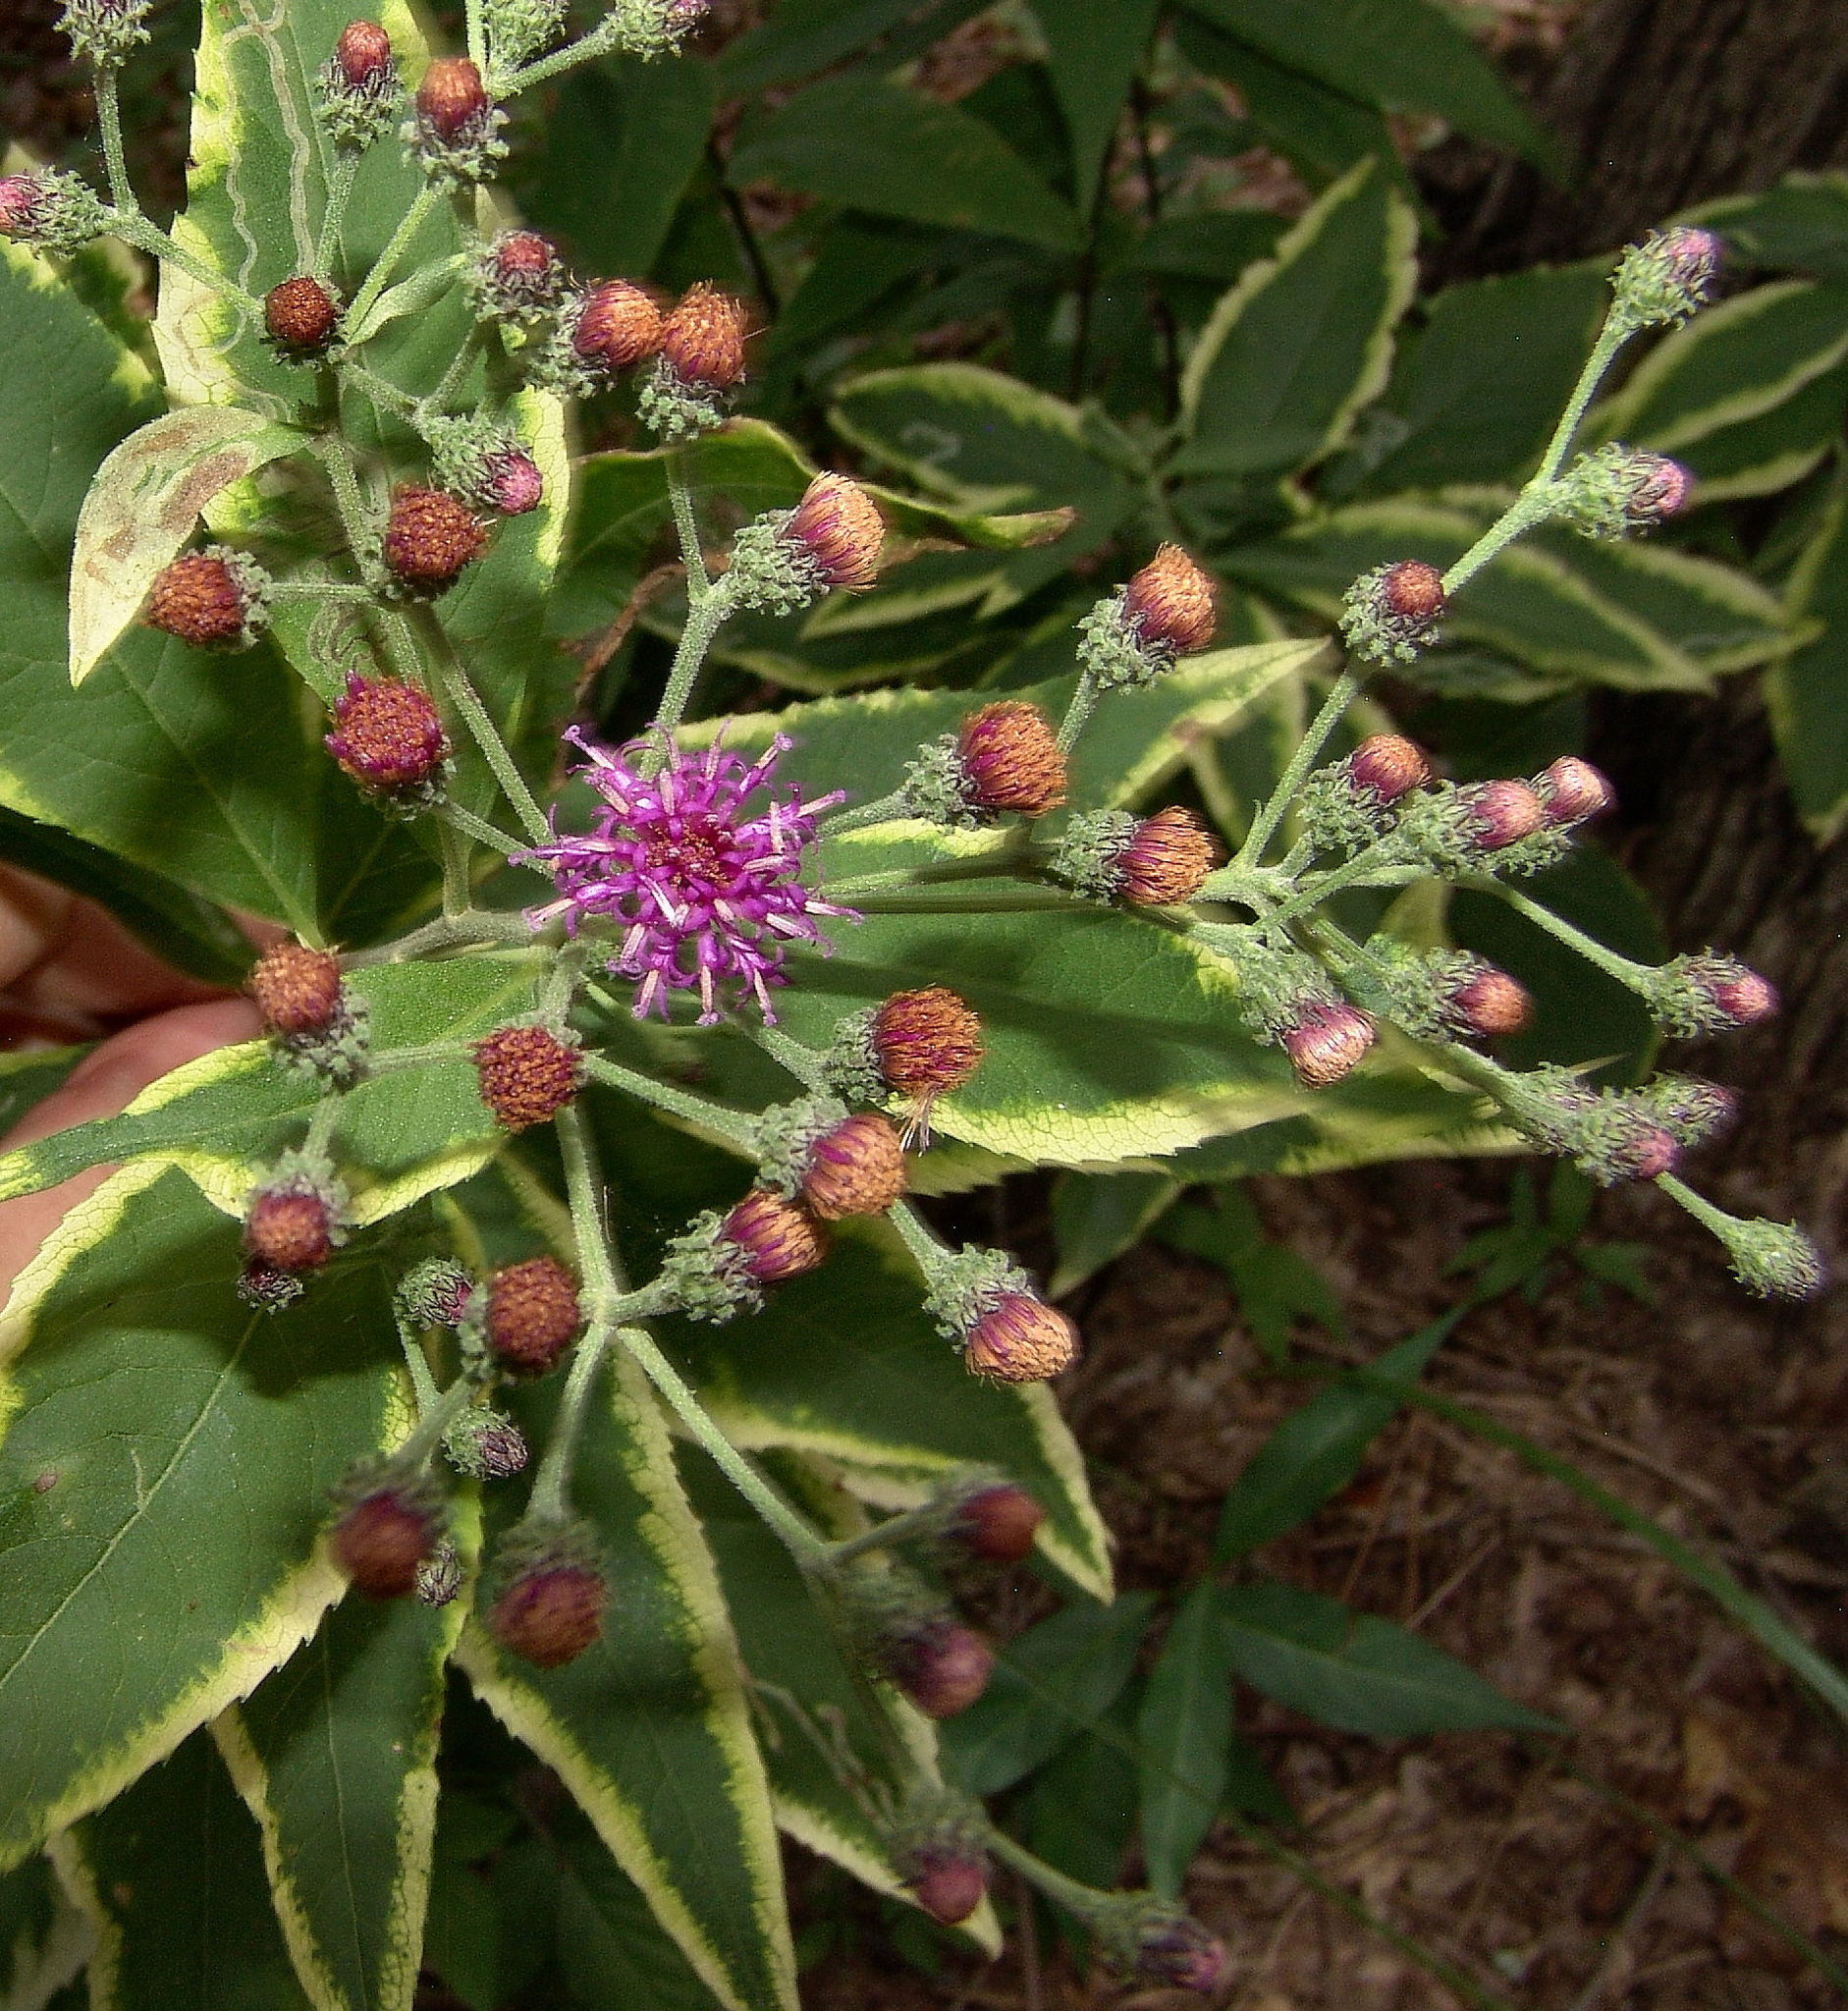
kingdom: Plantae
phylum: Tracheophyta
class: Magnoliopsida
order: Asterales
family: Asteraceae
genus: Vernonia
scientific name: Vernonia baldwinii
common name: Western ironweed
